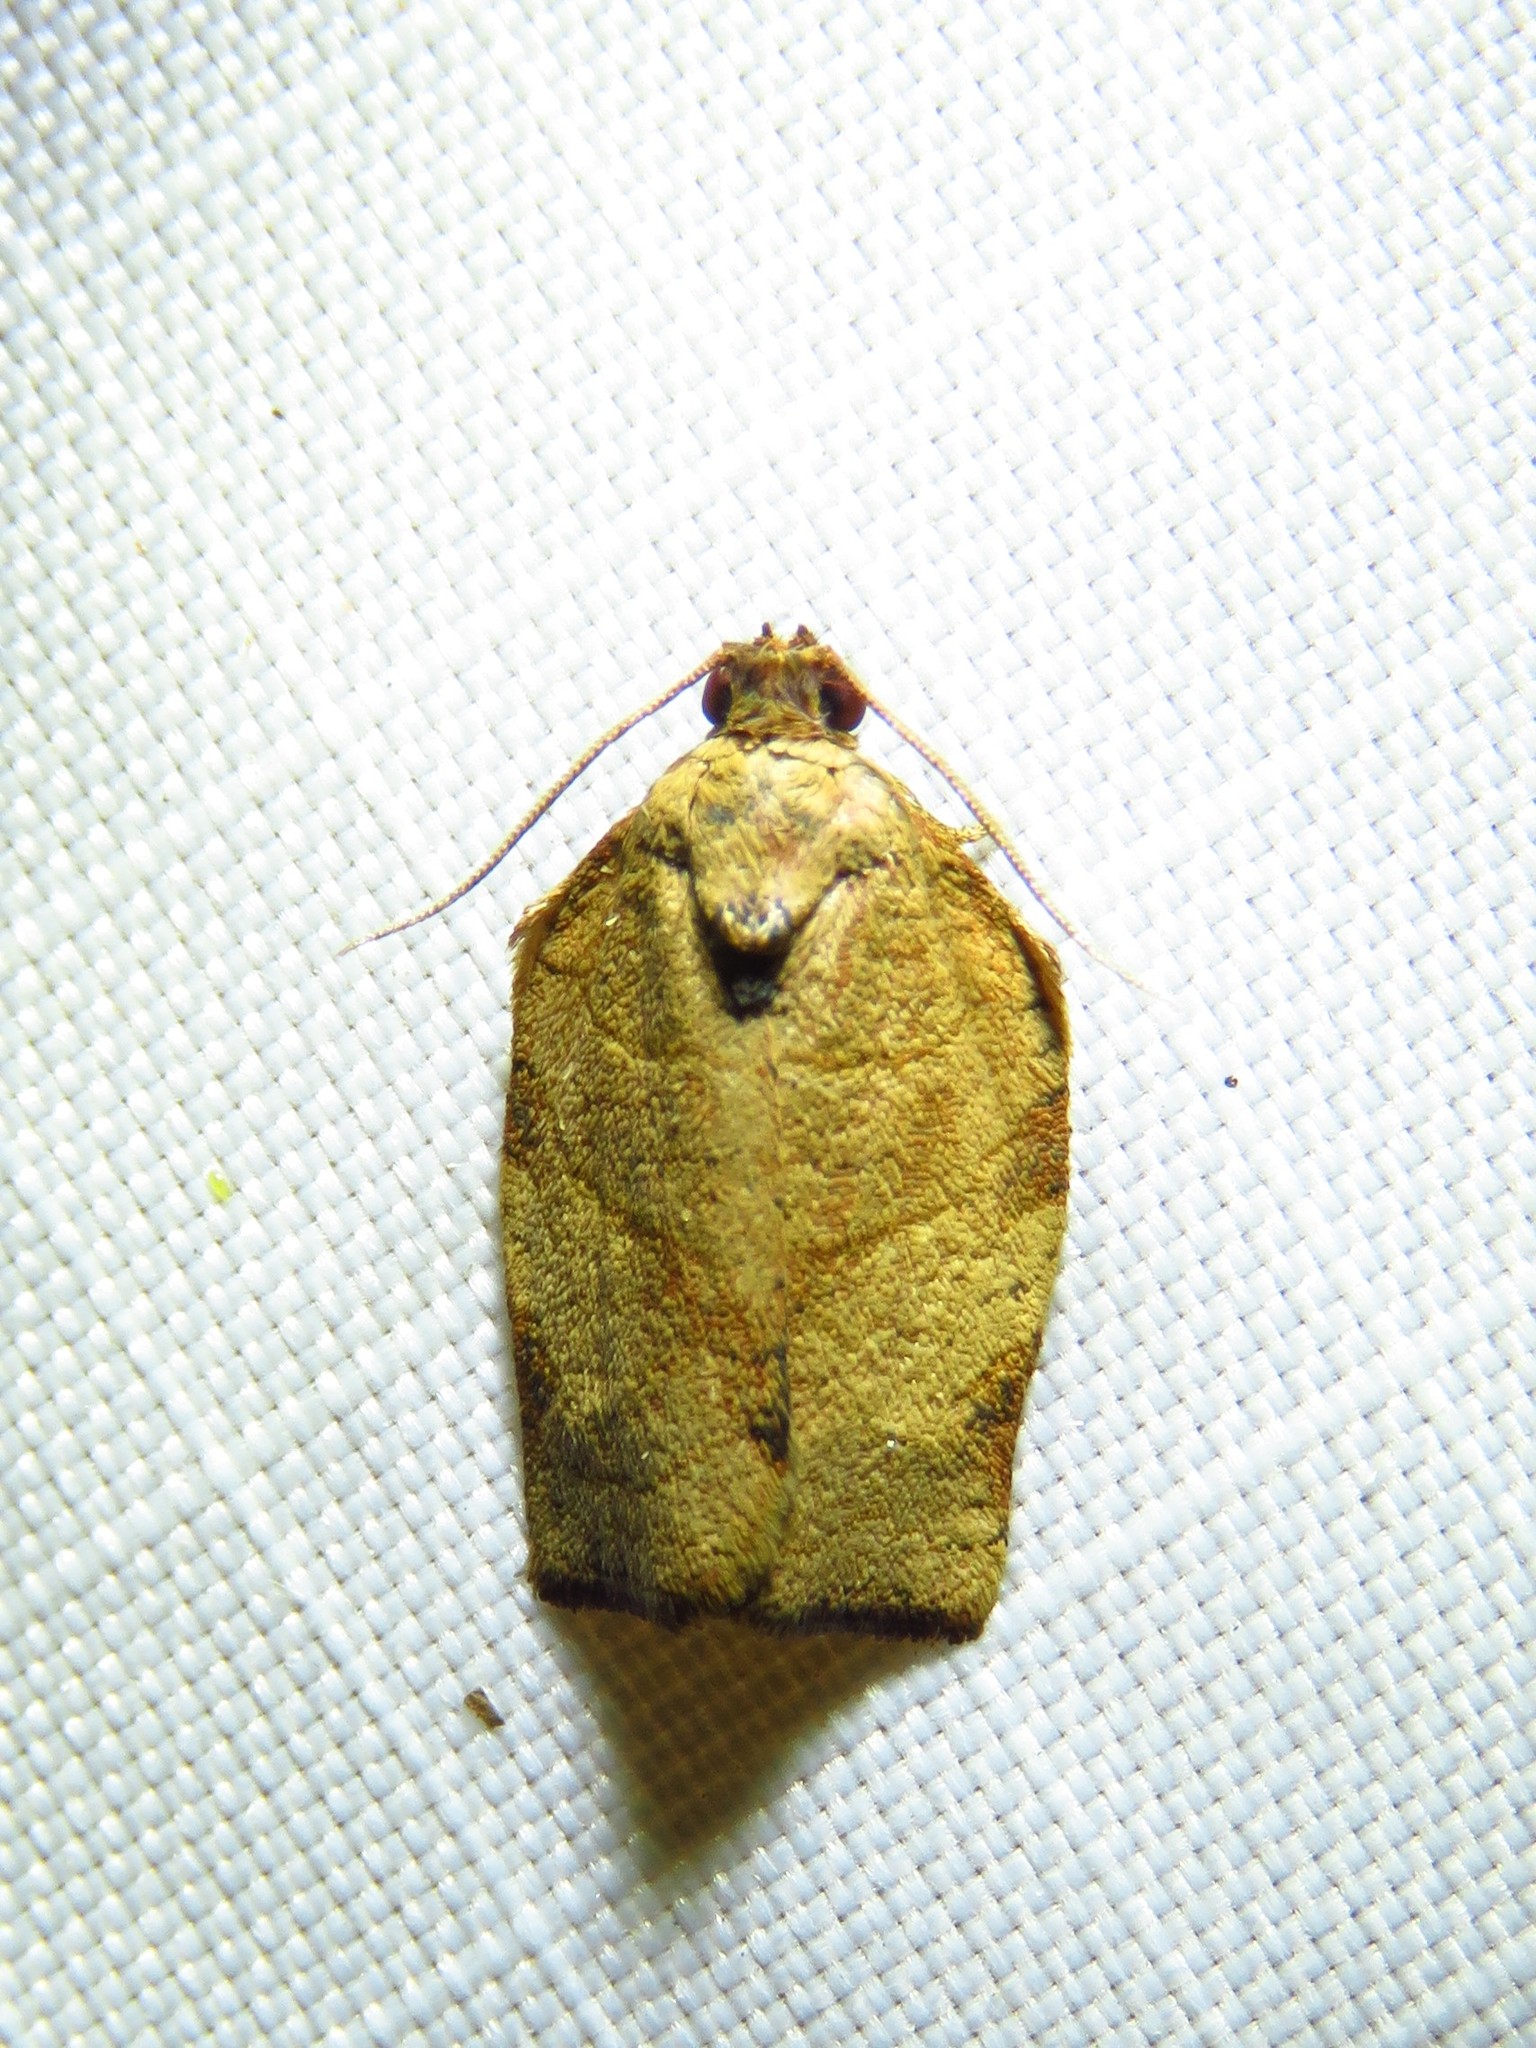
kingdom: Animalia
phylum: Arthropoda
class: Insecta
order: Lepidoptera
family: Tortricidae
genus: Choristoneura
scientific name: Choristoneura rosaceana
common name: Oblique-banded leafroller moth
